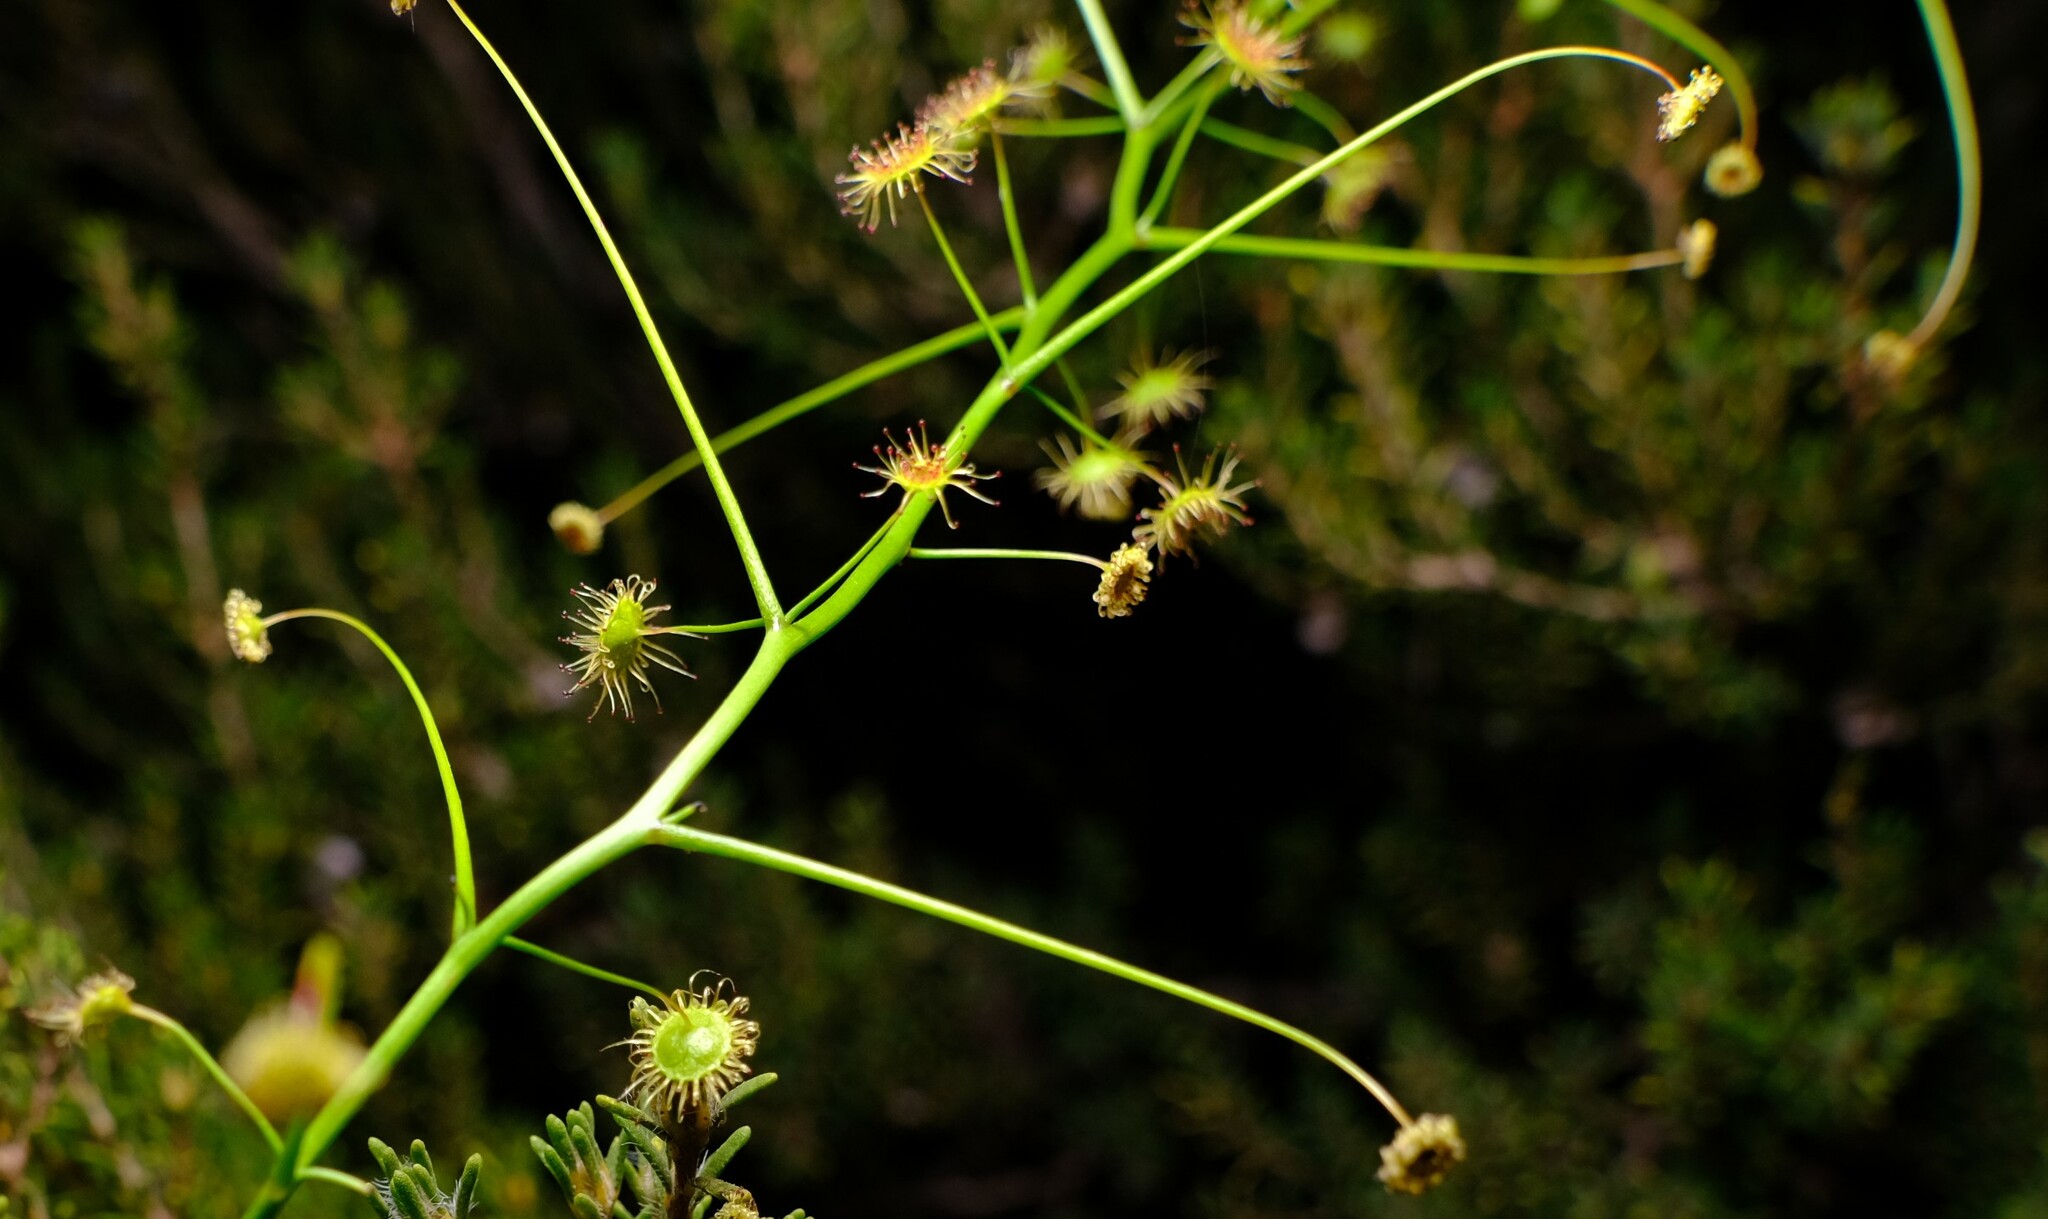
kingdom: Plantae
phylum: Tracheophyta
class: Magnoliopsida
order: Caryophyllales
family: Droseraceae
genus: Drosera
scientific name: Drosera pallida
